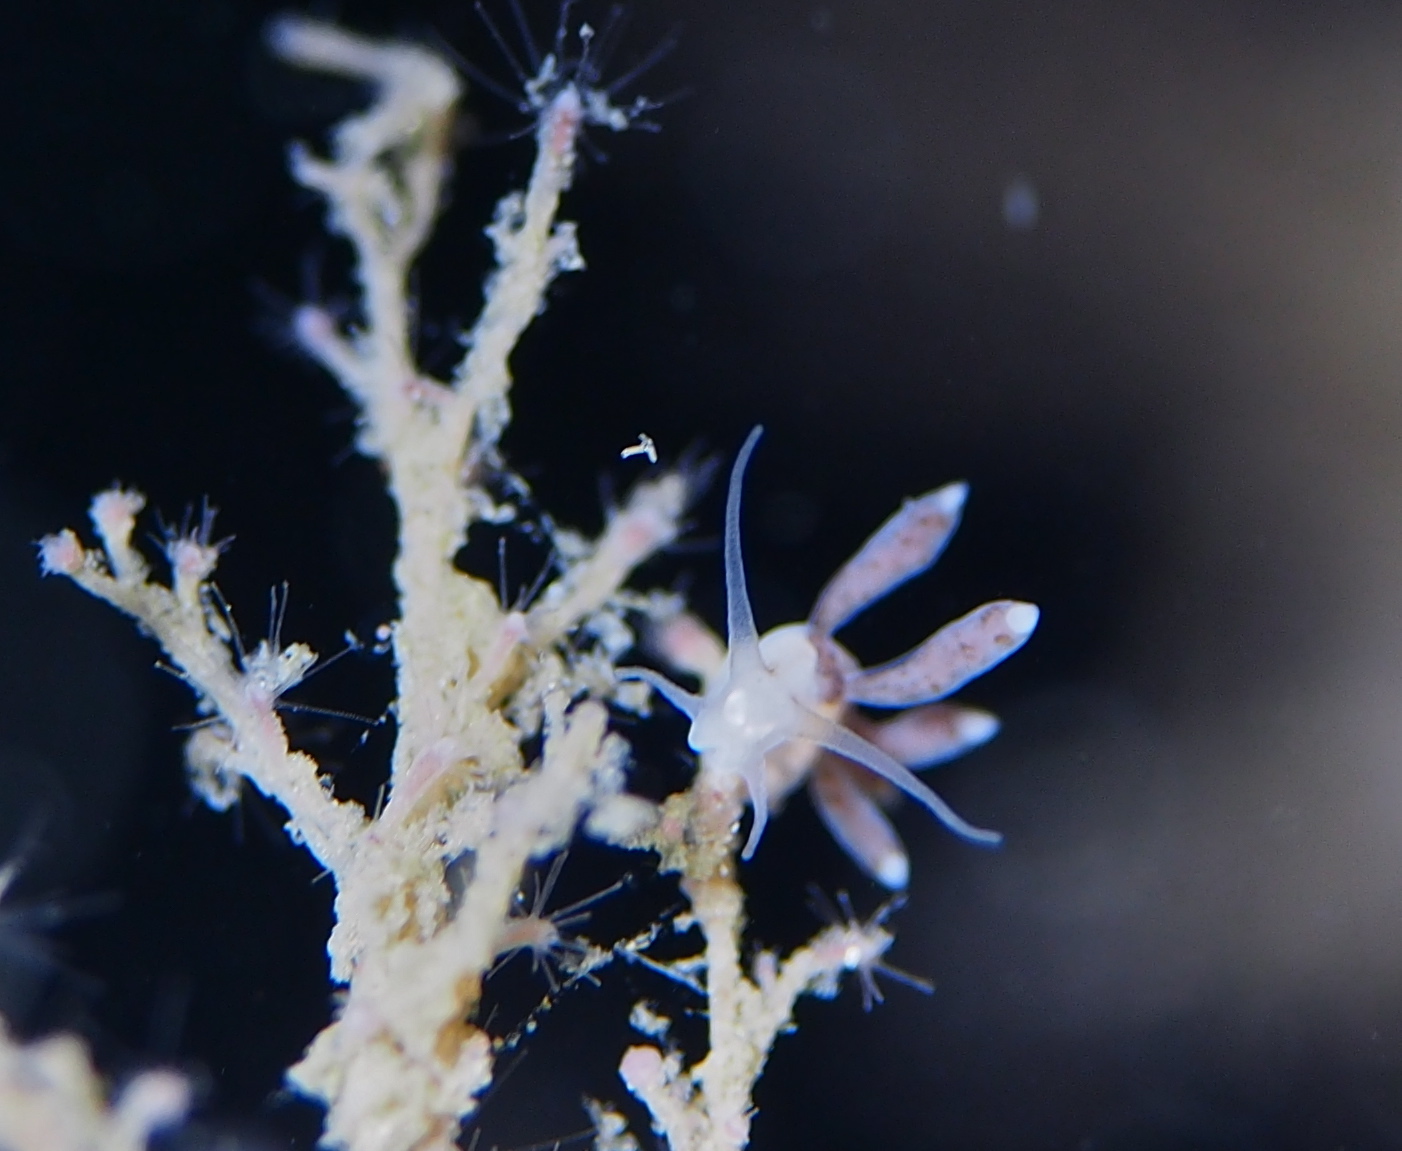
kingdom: Animalia
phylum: Mollusca
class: Gastropoda
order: Nudibranchia
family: Tergipedidae
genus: Tergipes
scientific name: Tergipes tergipes
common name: Johnston's balloon eolis
